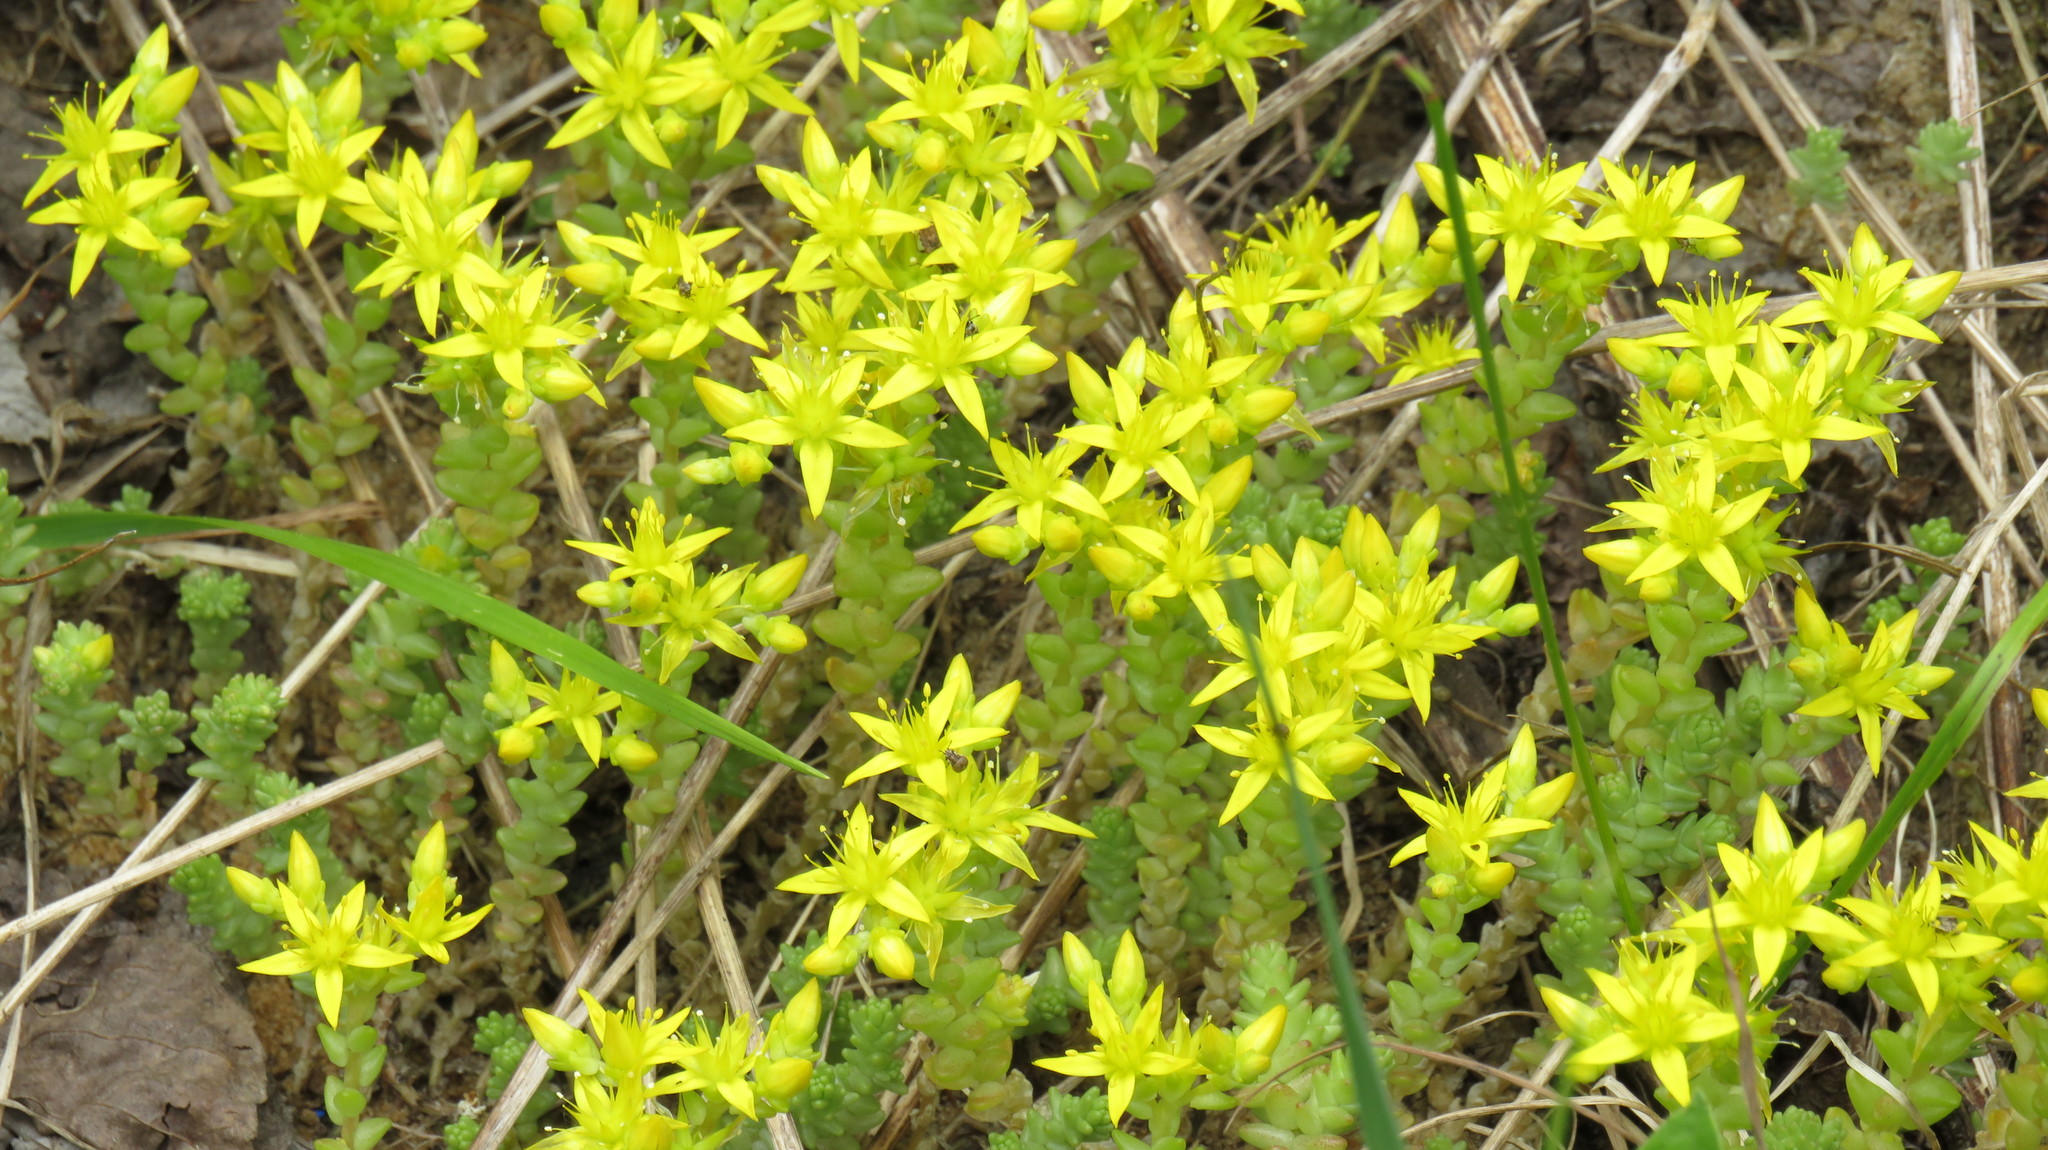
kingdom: Plantae
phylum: Tracheophyta
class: Magnoliopsida
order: Saxifragales
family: Crassulaceae
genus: Sedum
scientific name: Sedum acre
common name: Biting stonecrop
